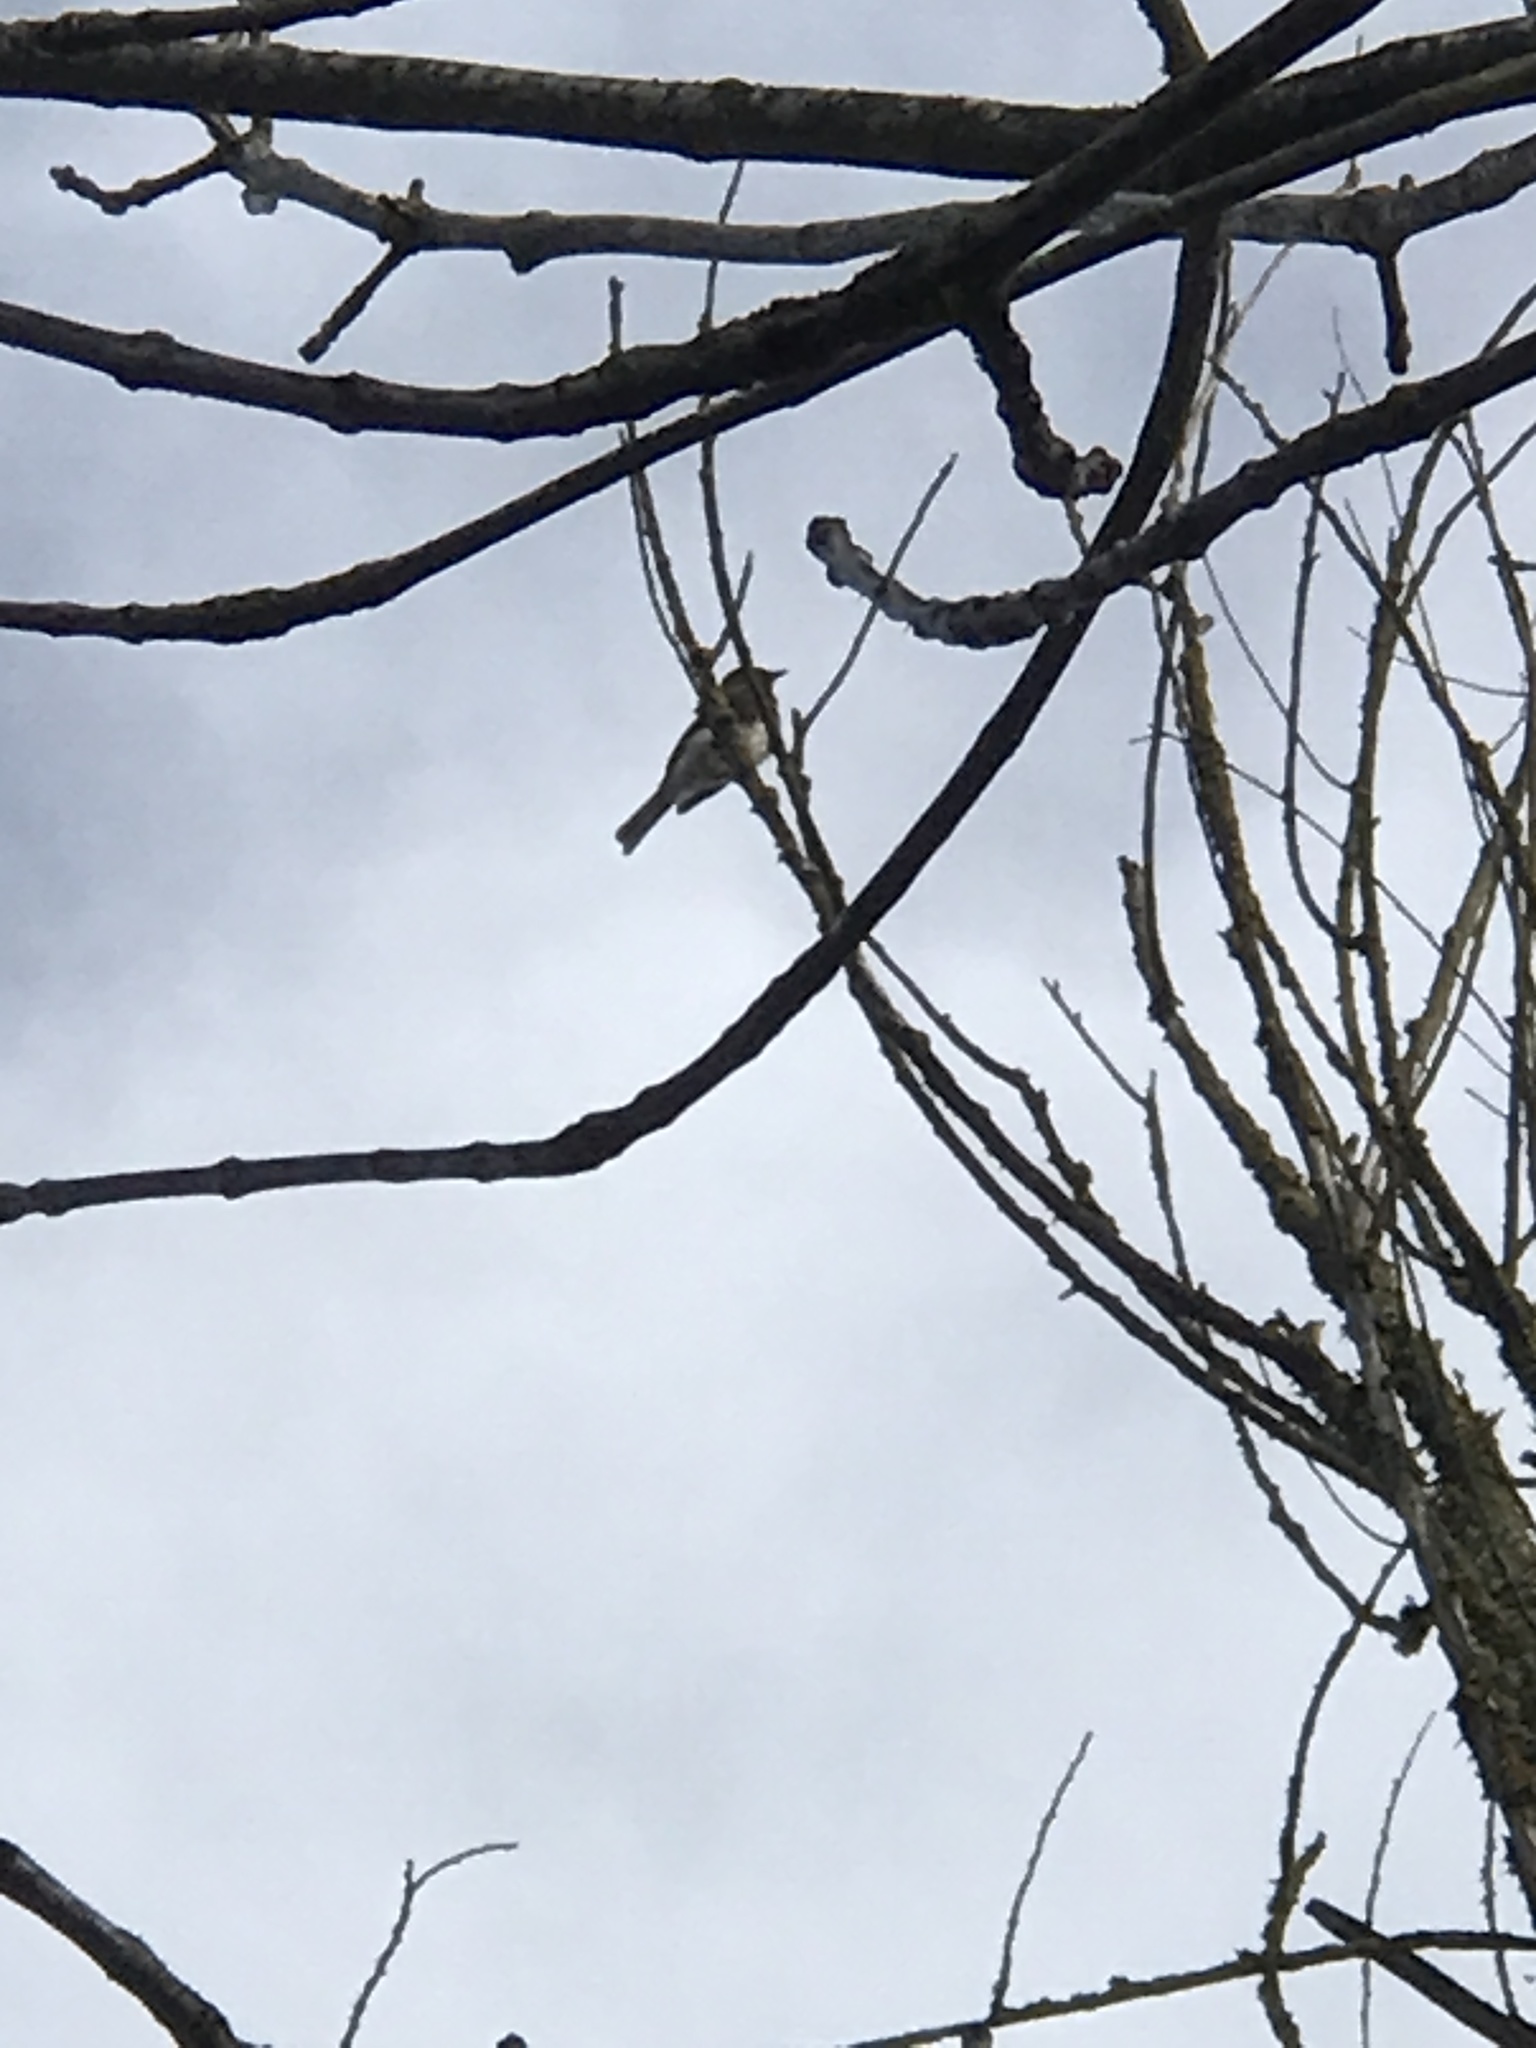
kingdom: Animalia
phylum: Chordata
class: Aves
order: Passeriformes
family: Tyrannidae
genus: Sayornis
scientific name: Sayornis nigricans
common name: Black phoebe
